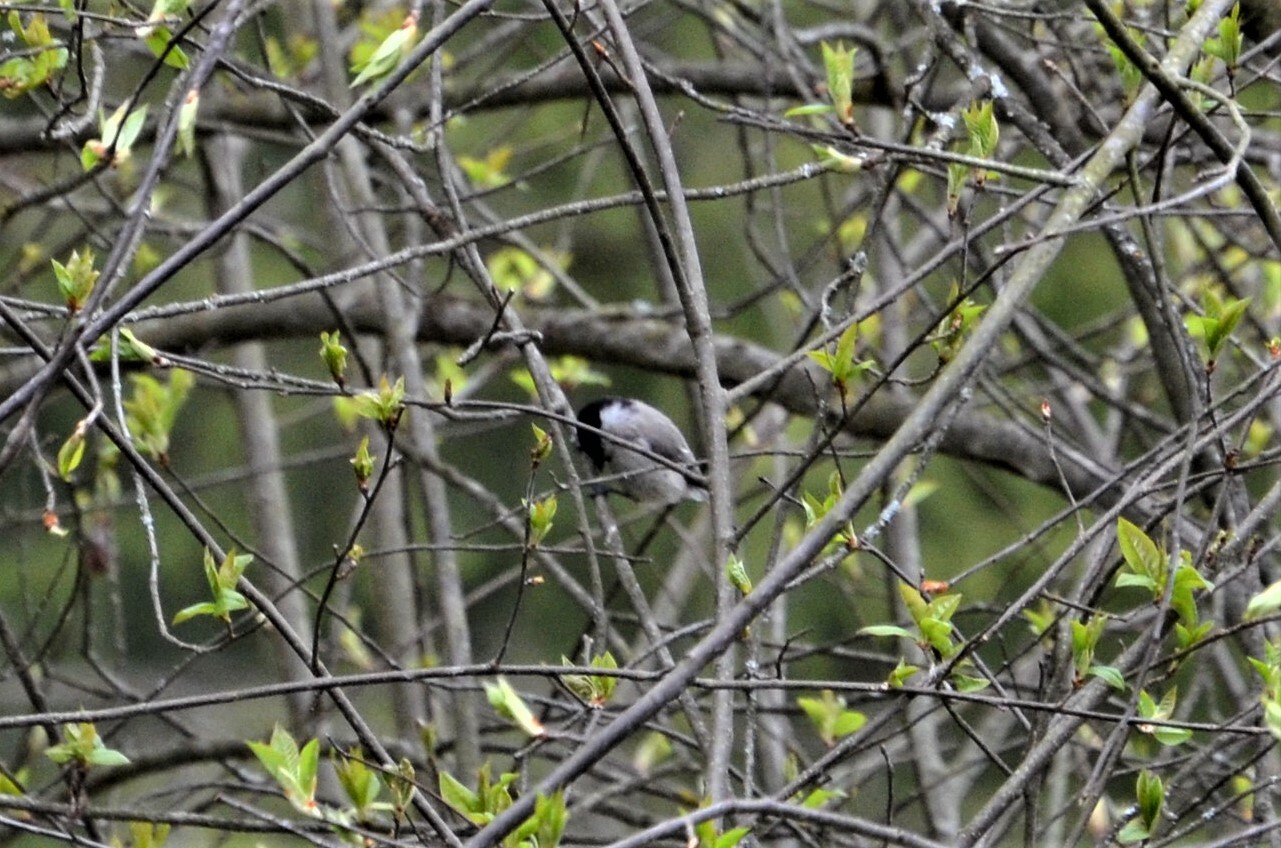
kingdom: Animalia
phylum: Chordata
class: Aves
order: Passeriformes
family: Paridae
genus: Poecile
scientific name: Poecile palustris
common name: Marsh tit
